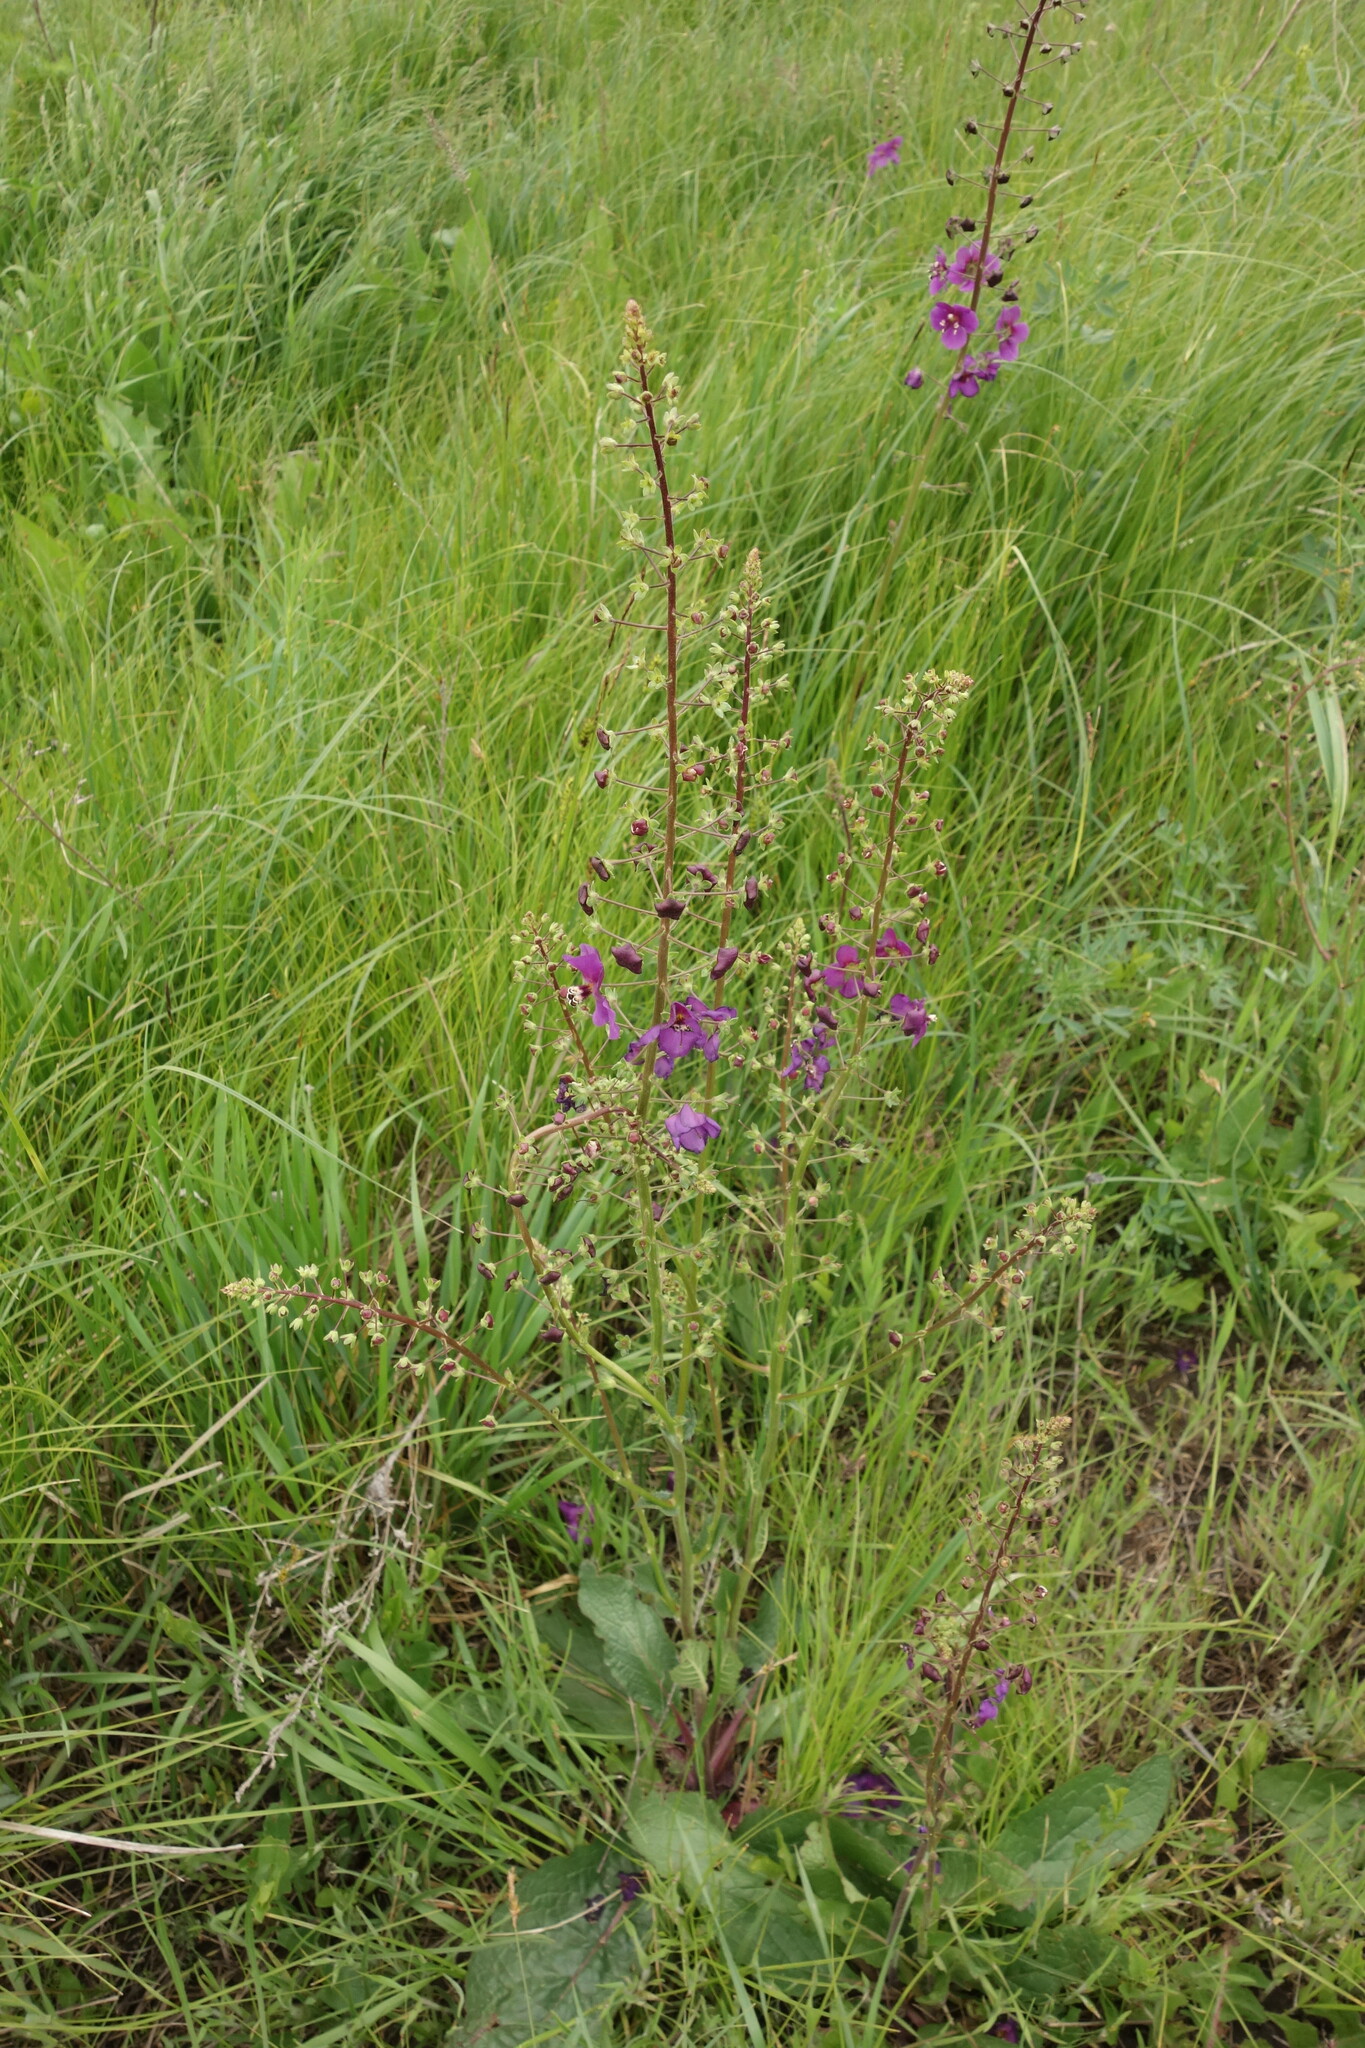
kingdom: Plantae
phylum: Tracheophyta
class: Magnoliopsida
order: Lamiales
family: Scrophulariaceae
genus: Verbascum
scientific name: Verbascum phoeniceum
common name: Purple mullein
